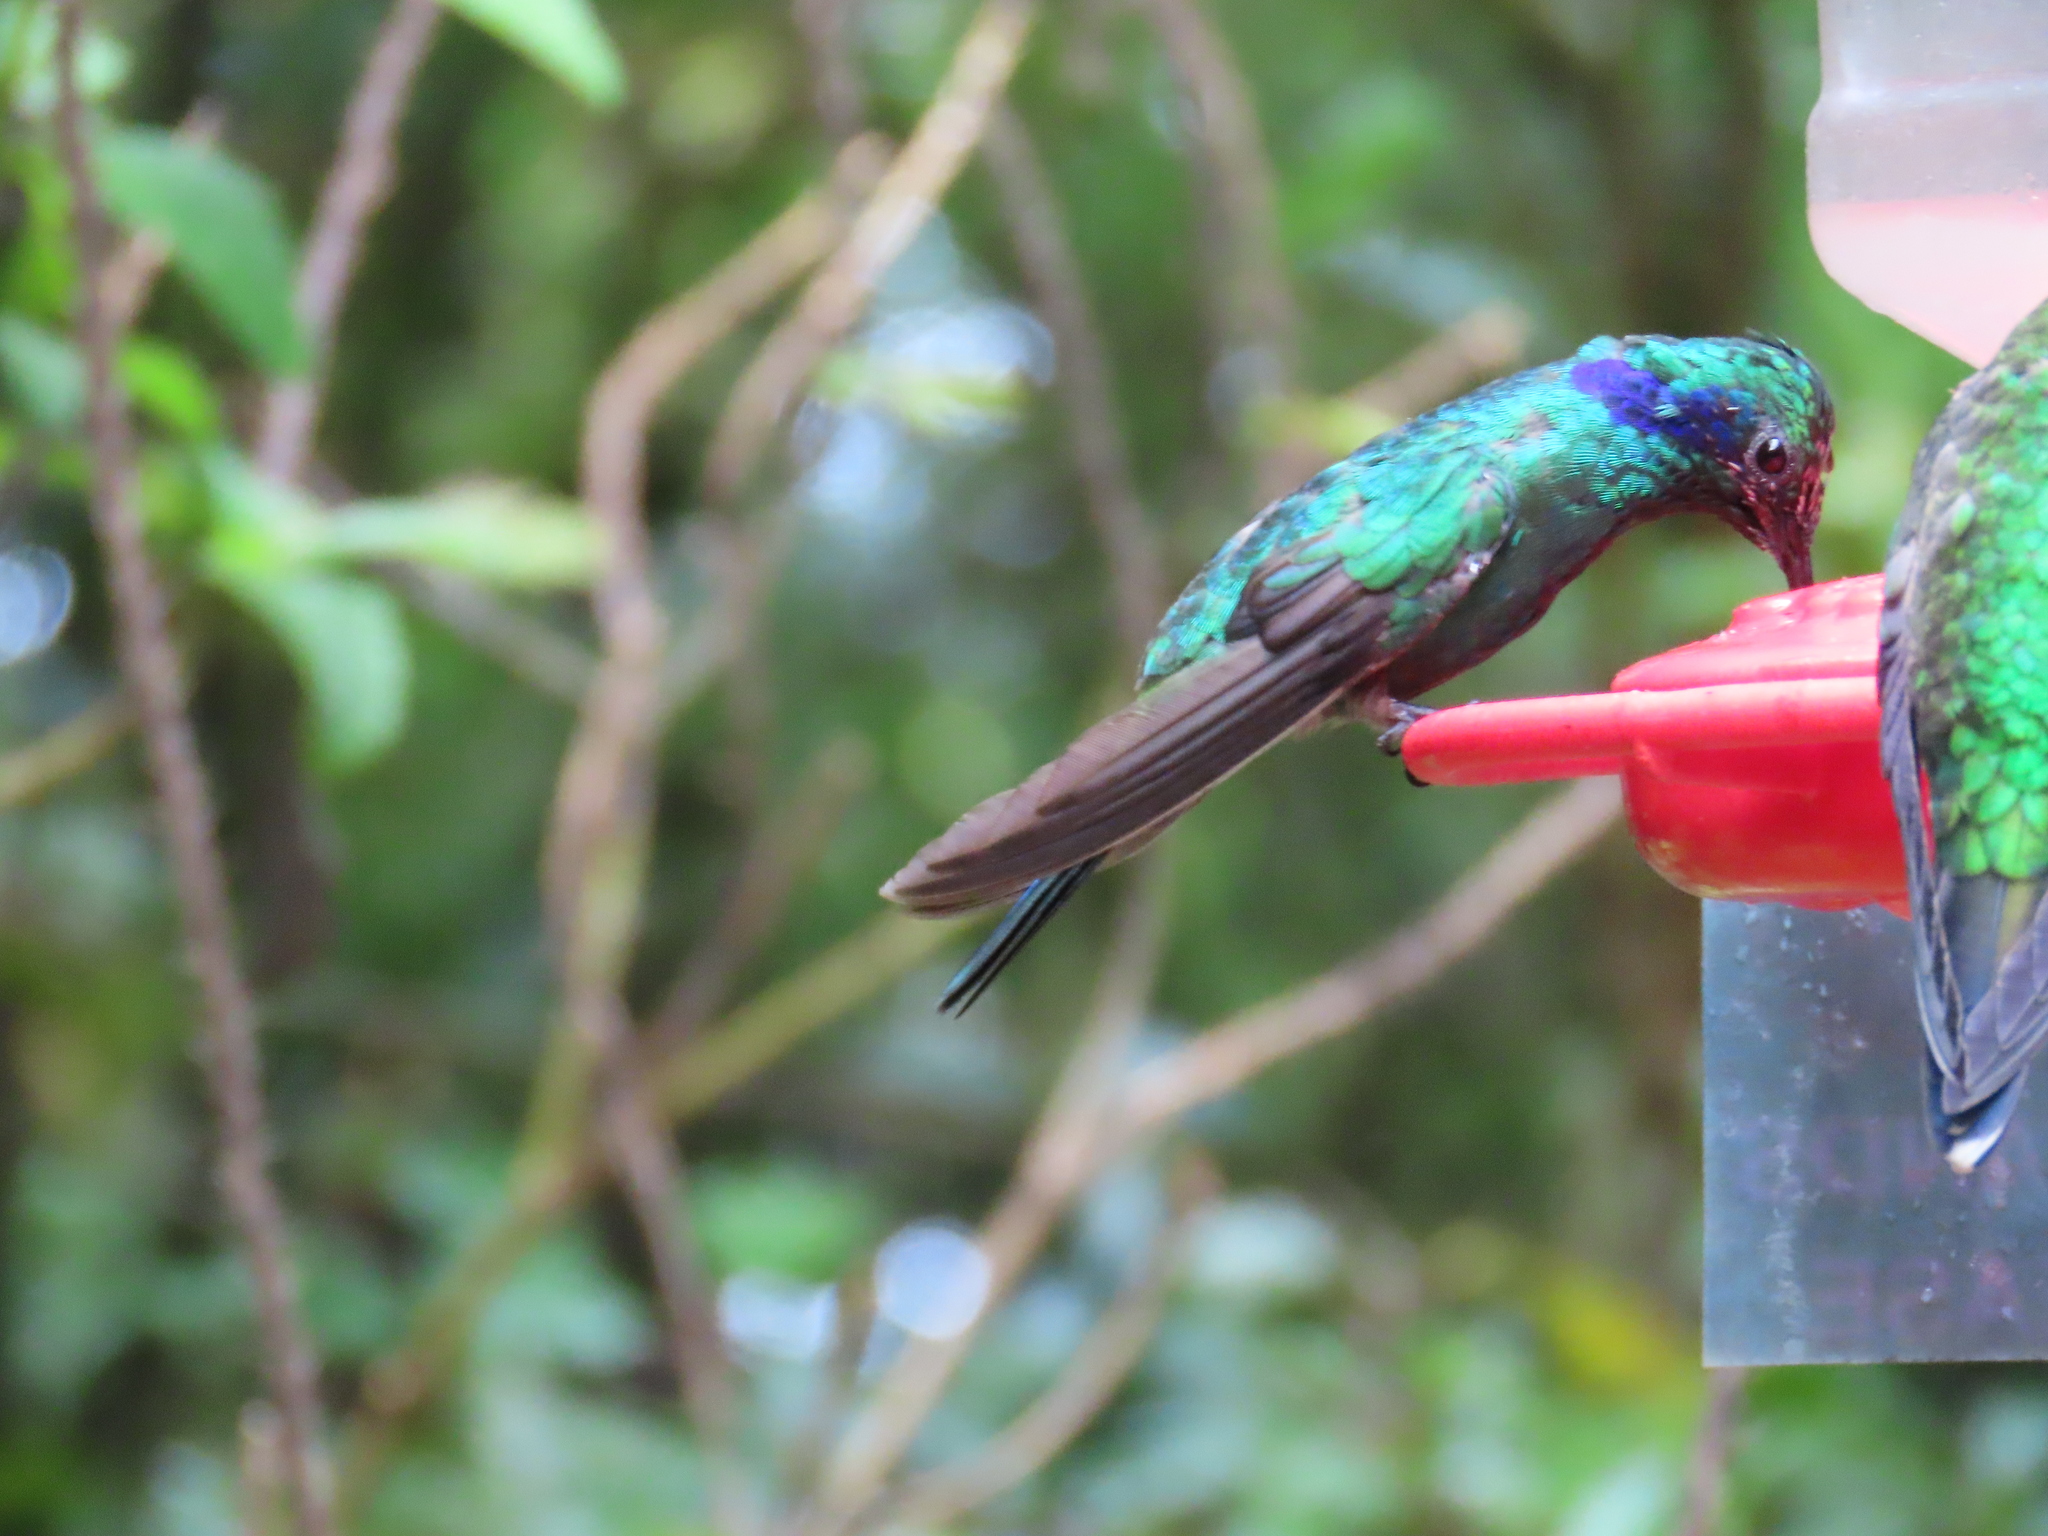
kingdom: Animalia
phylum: Chordata
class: Aves
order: Apodiformes
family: Trochilidae
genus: Colibri
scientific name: Colibri cyanotus
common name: Lesser violetear
